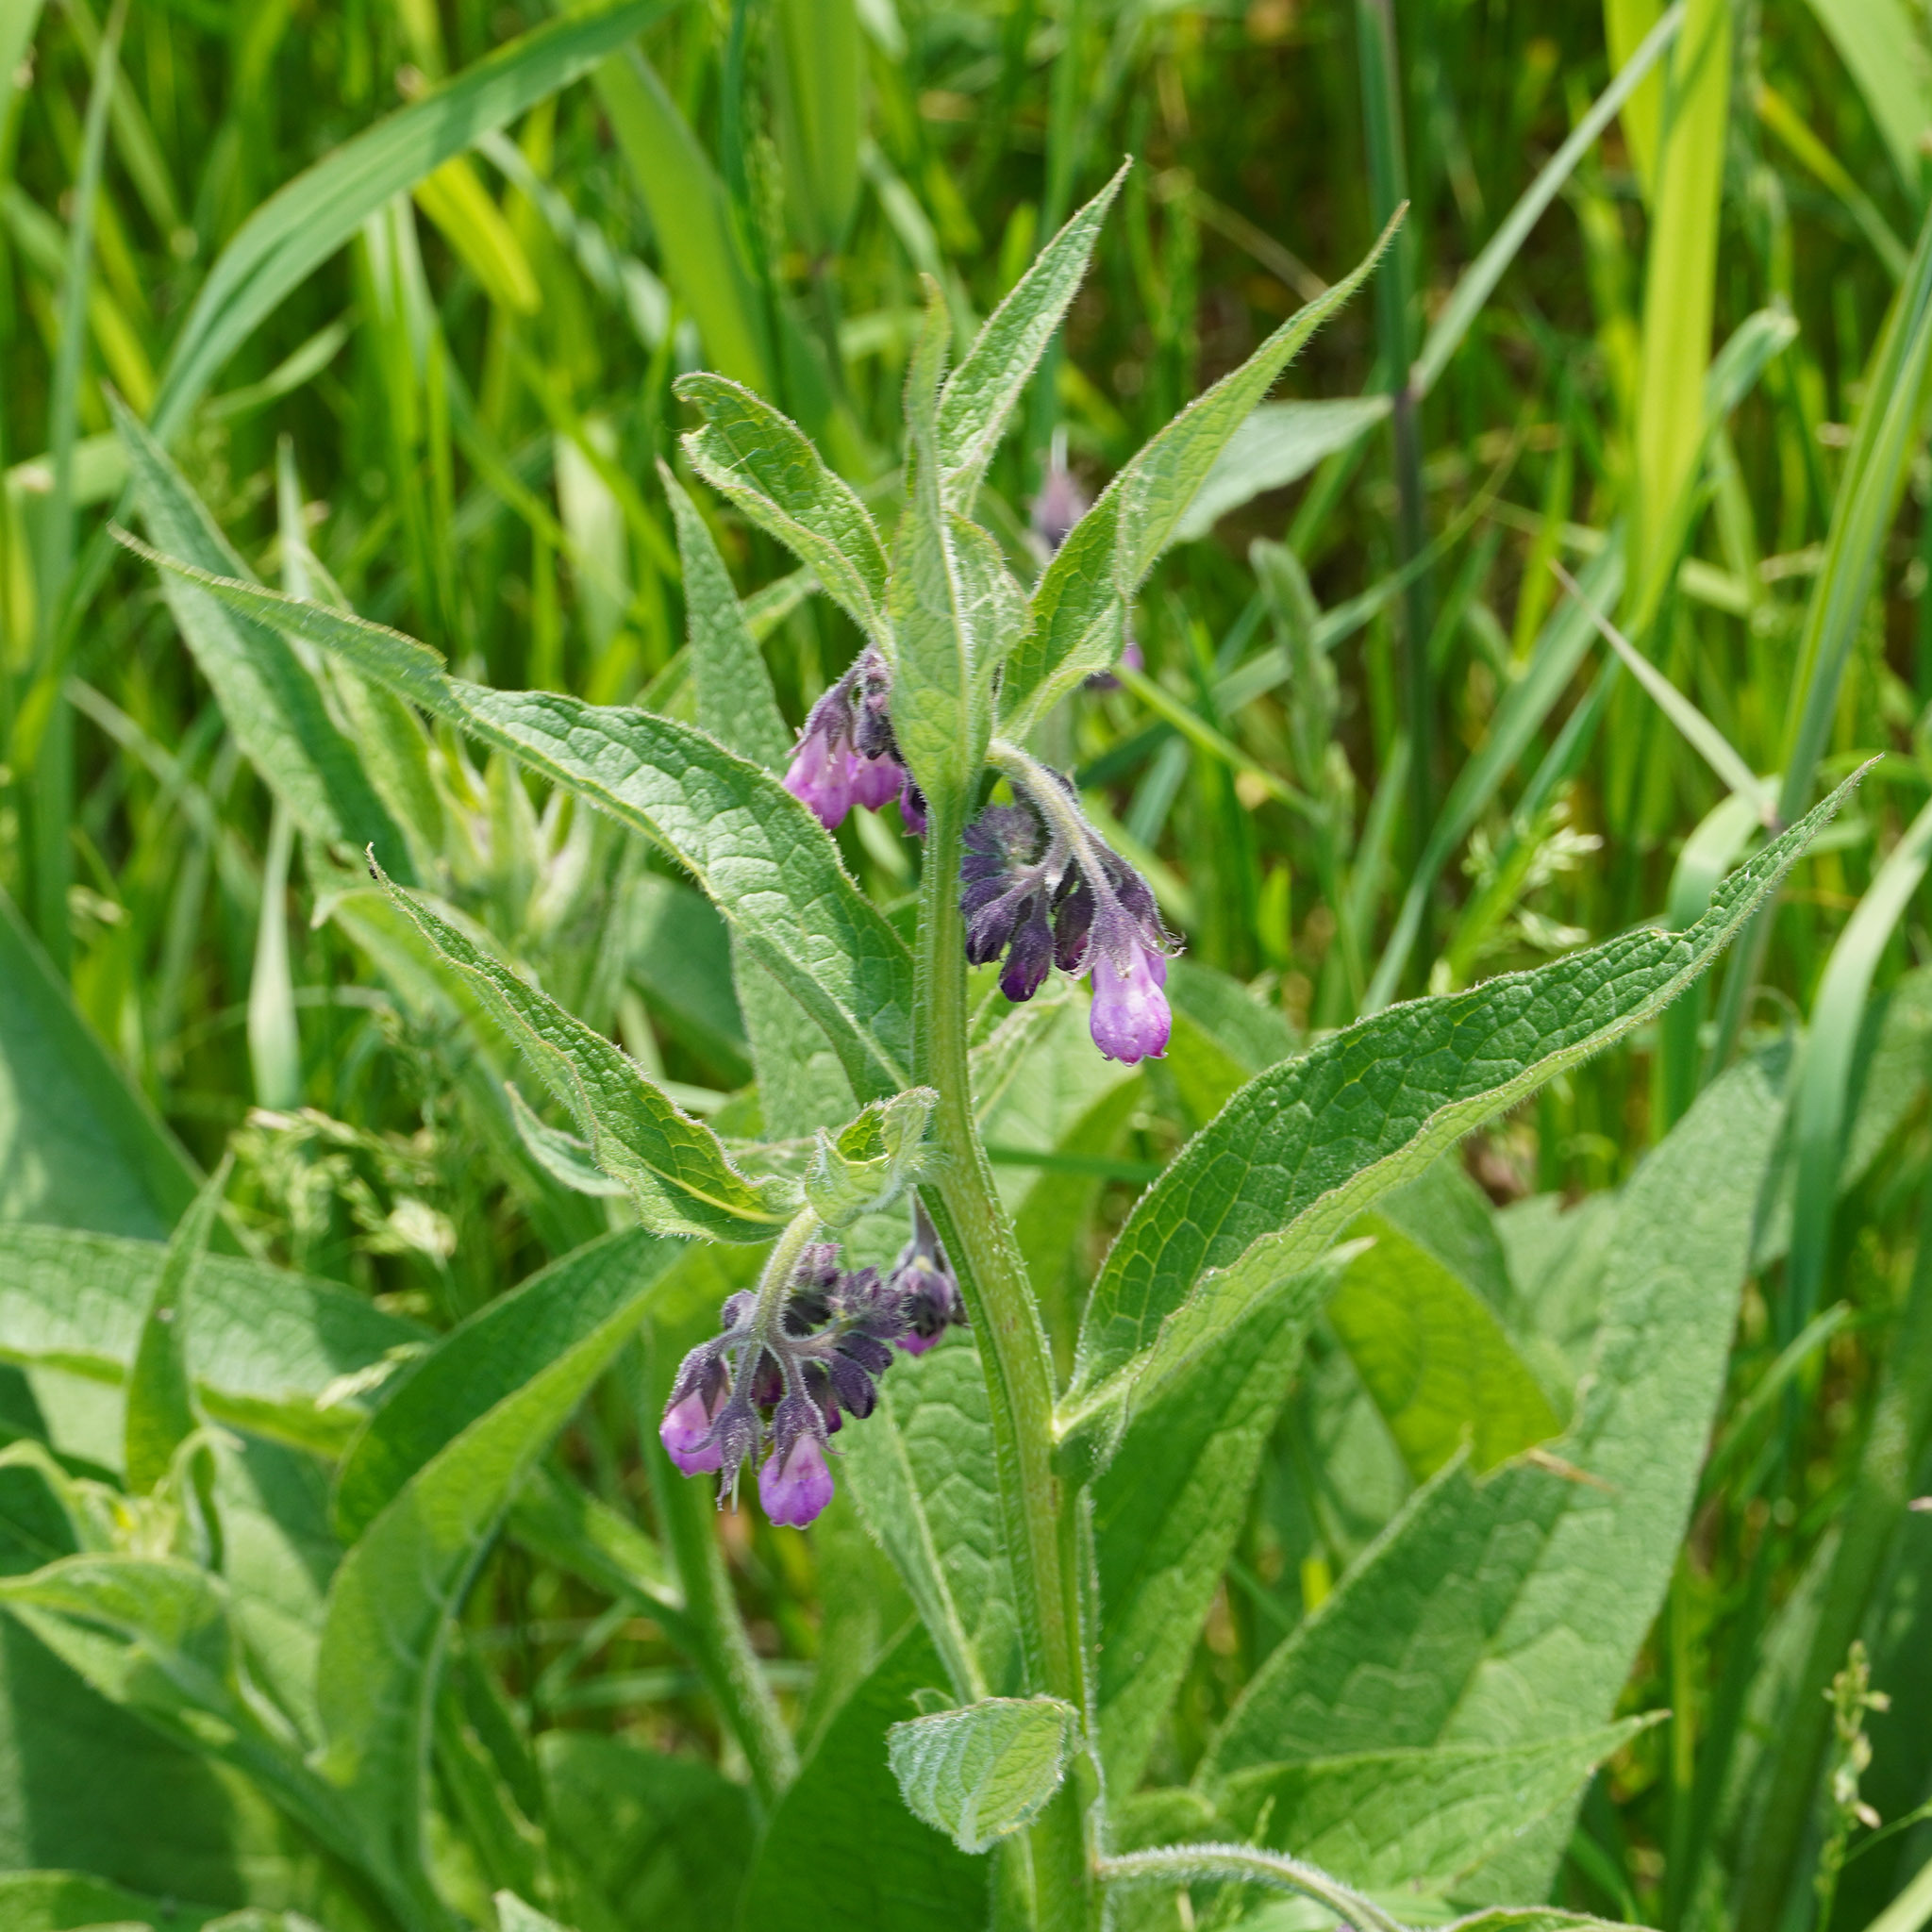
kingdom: Plantae
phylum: Tracheophyta
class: Magnoliopsida
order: Boraginales
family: Boraginaceae
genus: Symphytum
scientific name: Symphytum officinale
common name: Common comfrey
